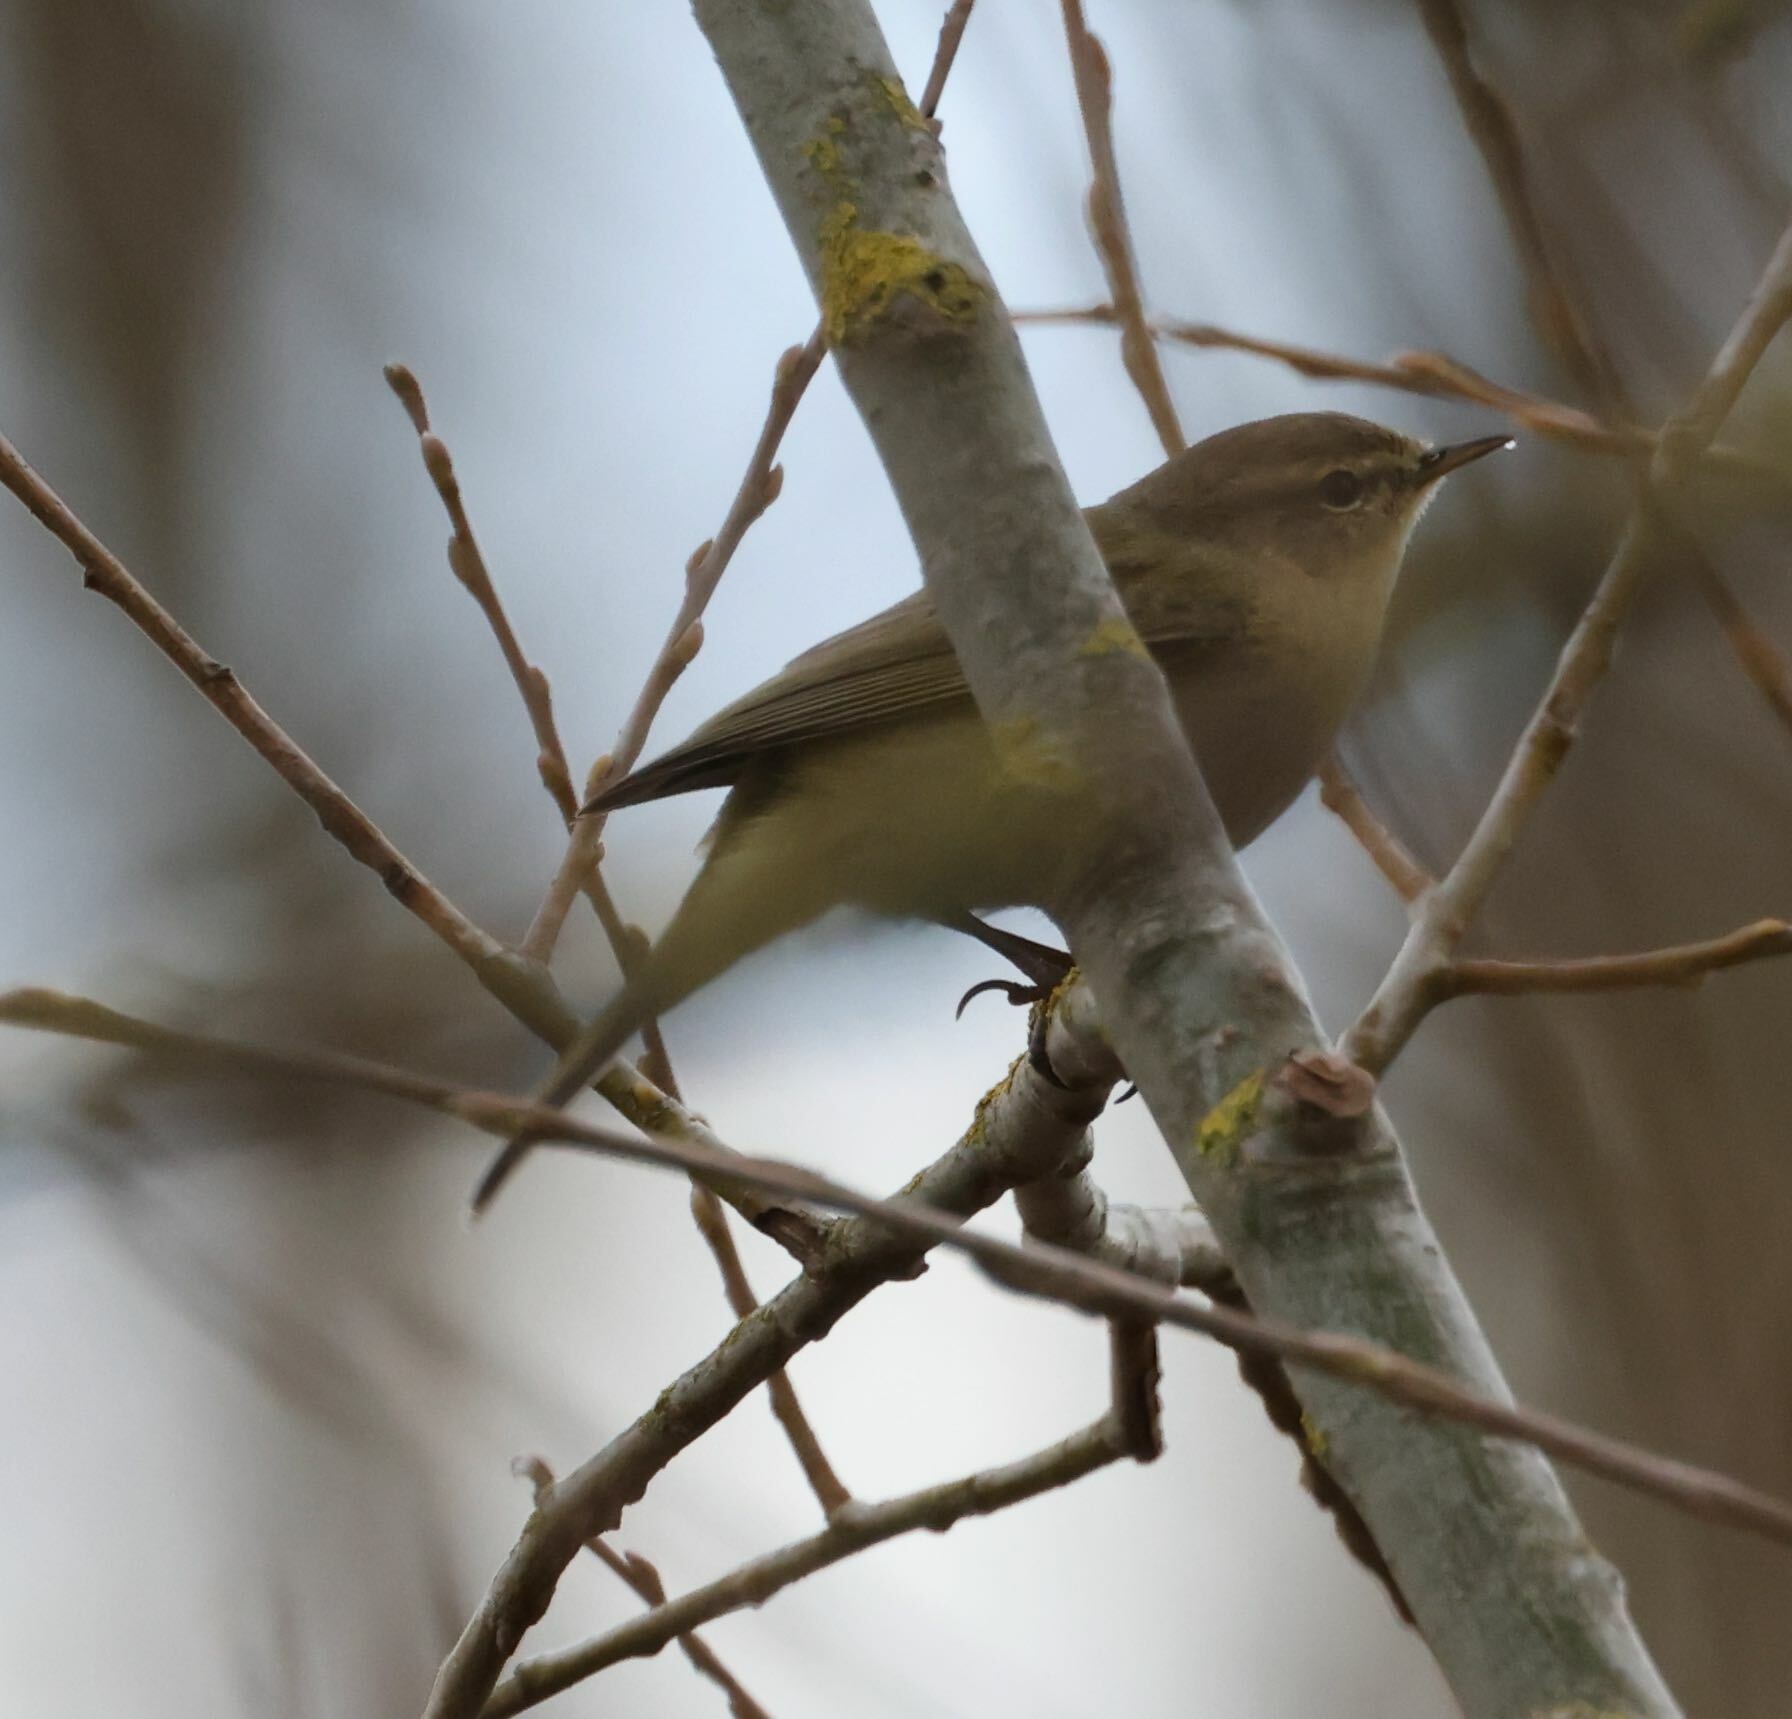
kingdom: Animalia
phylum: Chordata
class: Aves
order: Passeriformes
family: Phylloscopidae
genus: Phylloscopus
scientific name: Phylloscopus collybita
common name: Common chiffchaff
